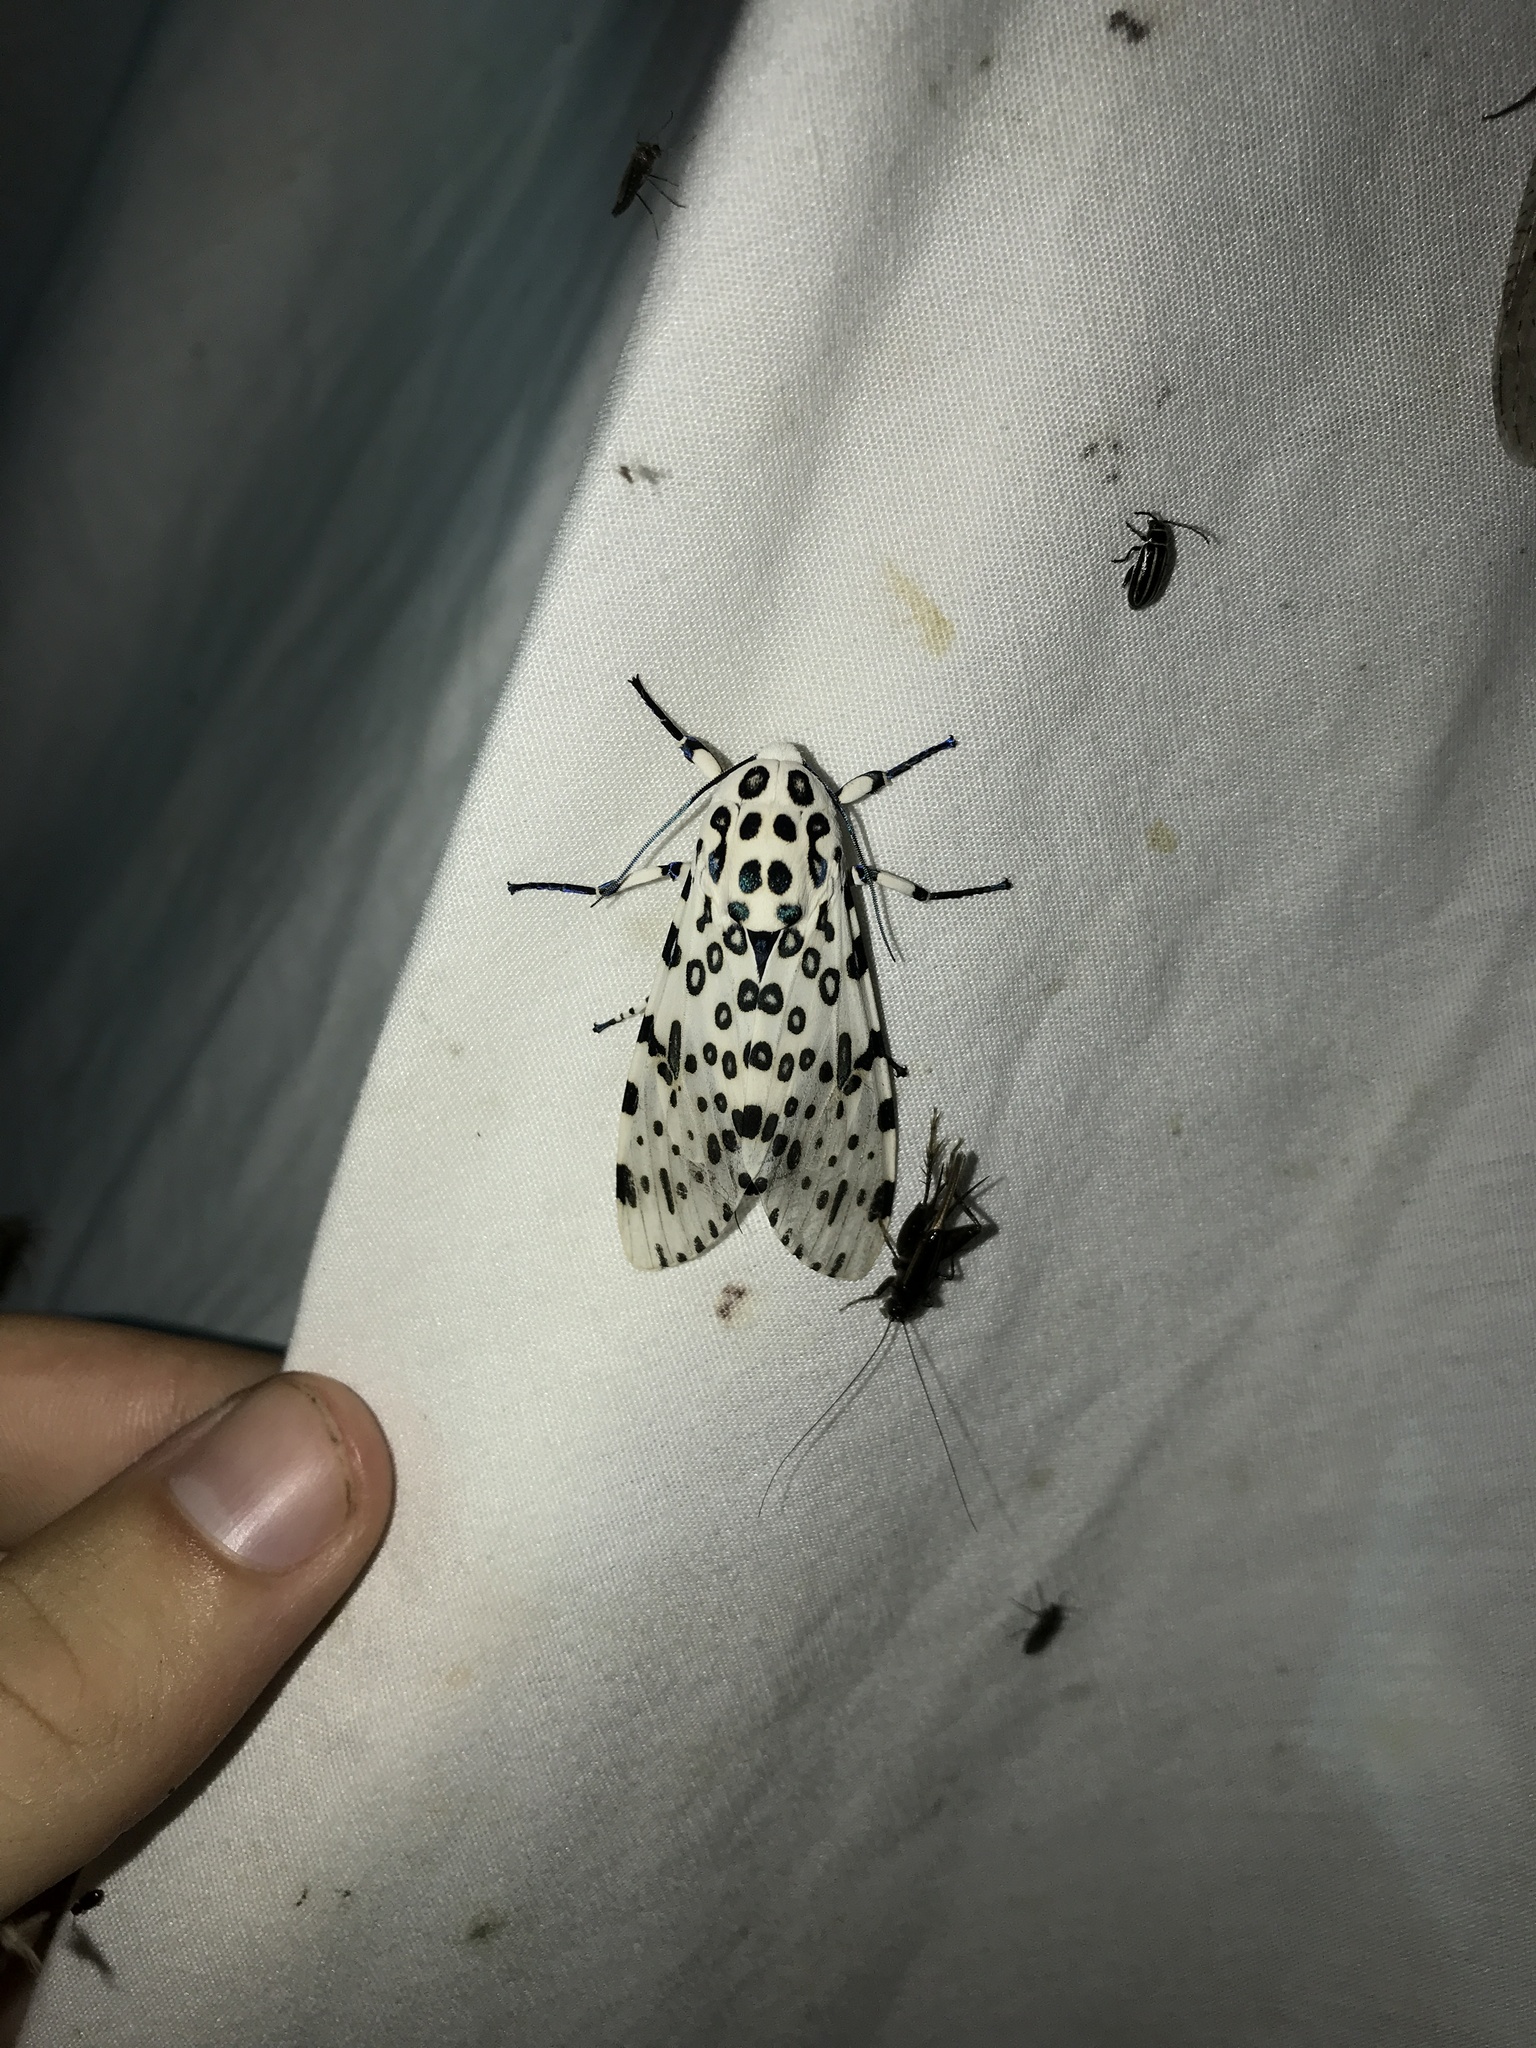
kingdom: Animalia
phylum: Arthropoda
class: Insecta
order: Lepidoptera
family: Erebidae
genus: Hypercompe
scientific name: Hypercompe scribonia
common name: Giant leopard moth
